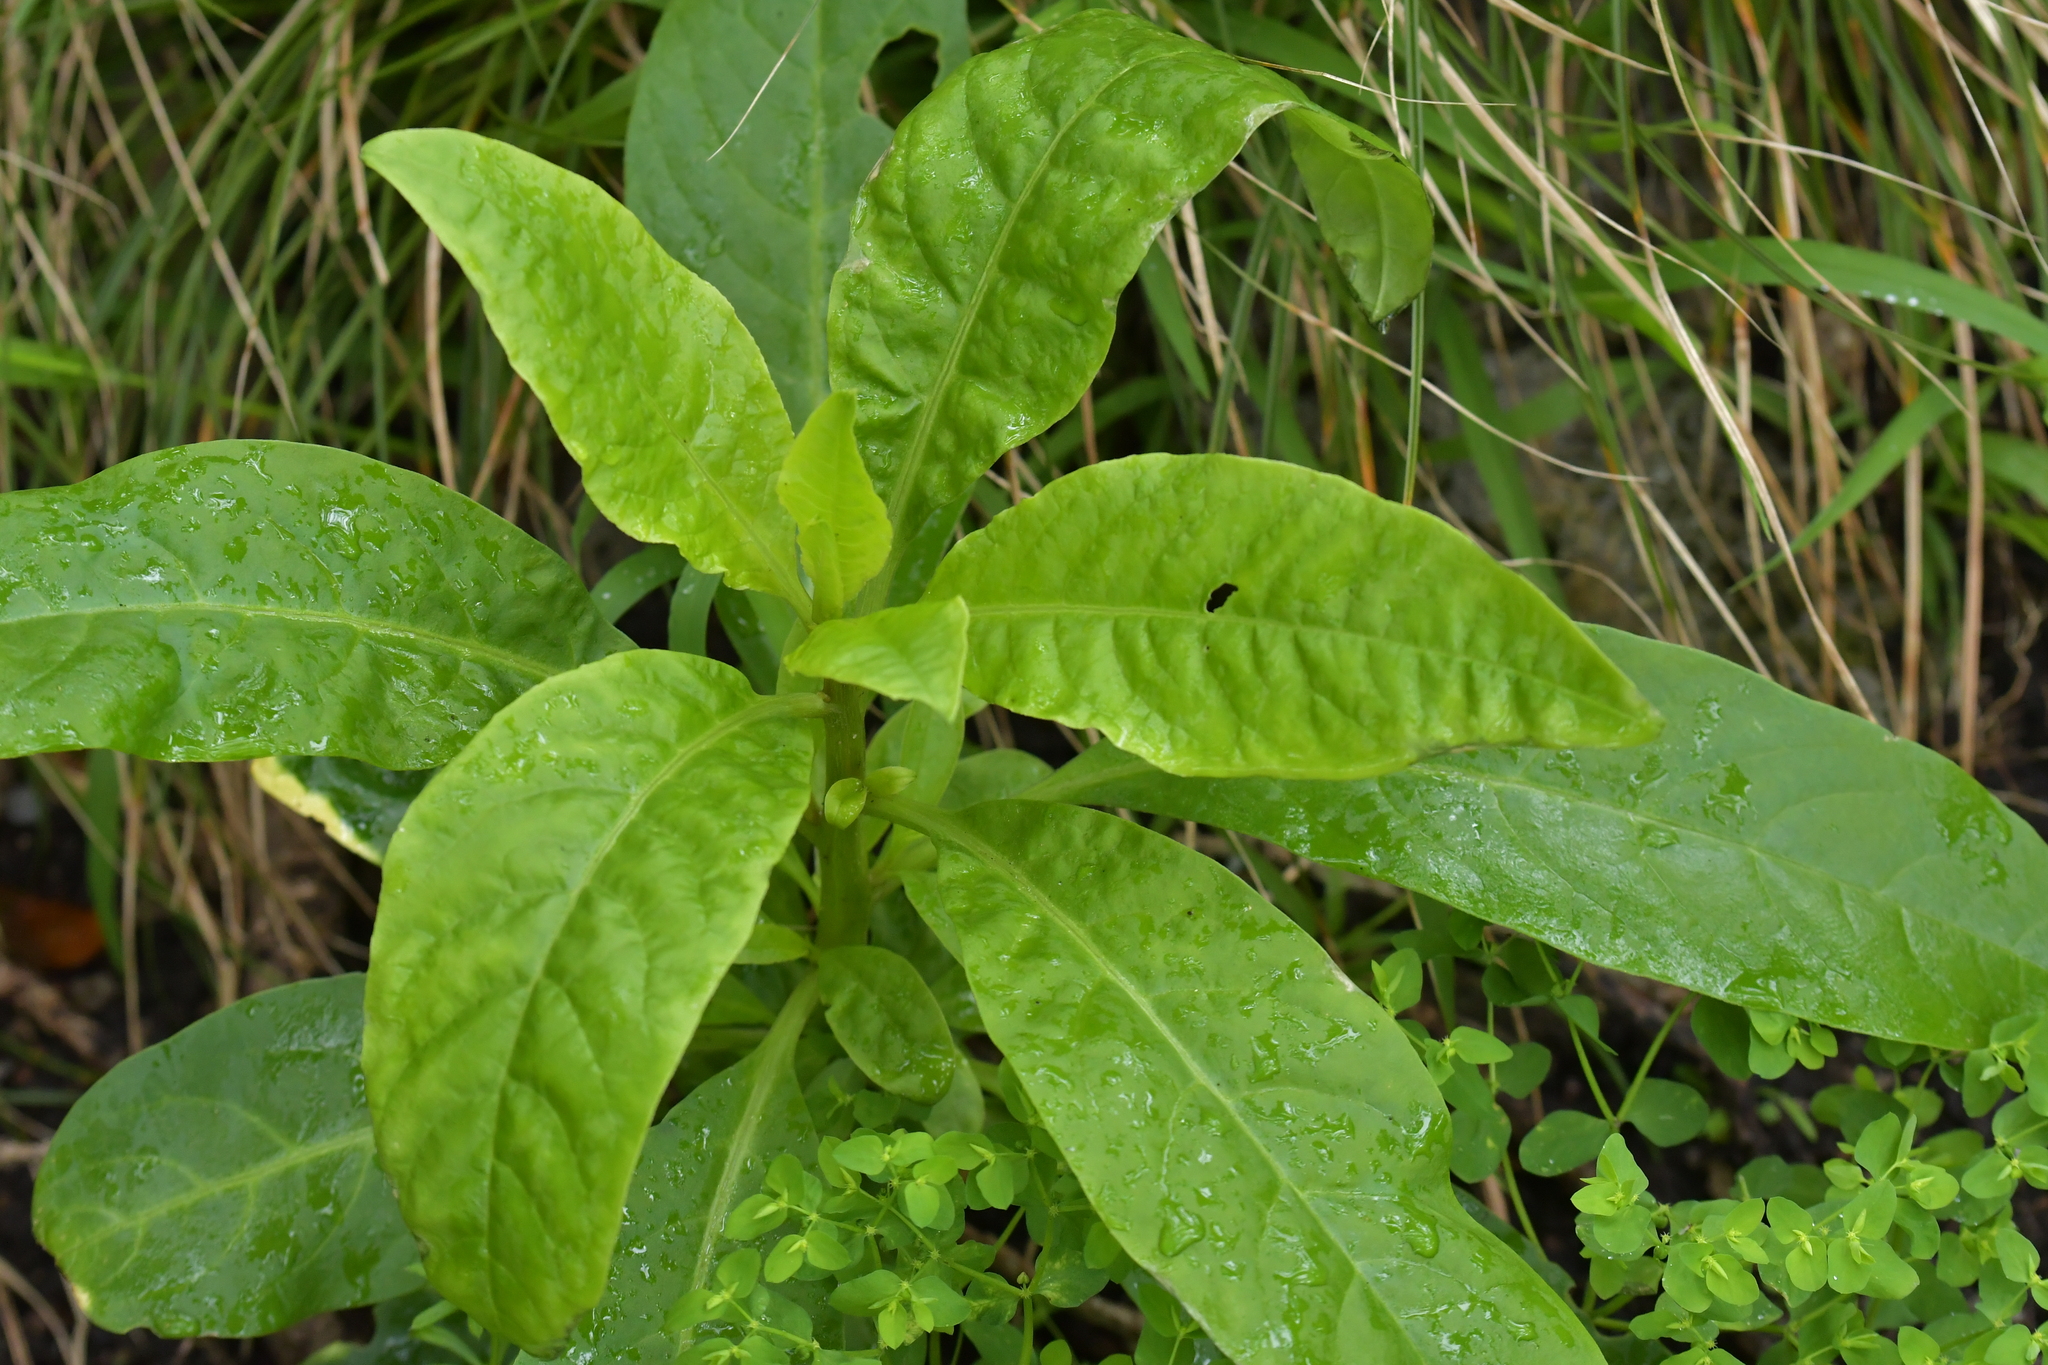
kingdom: Plantae
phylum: Tracheophyta
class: Magnoliopsida
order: Caryophyllales
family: Phytolaccaceae
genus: Phytolacca
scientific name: Phytolacca icosandra
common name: Button pokeweed
